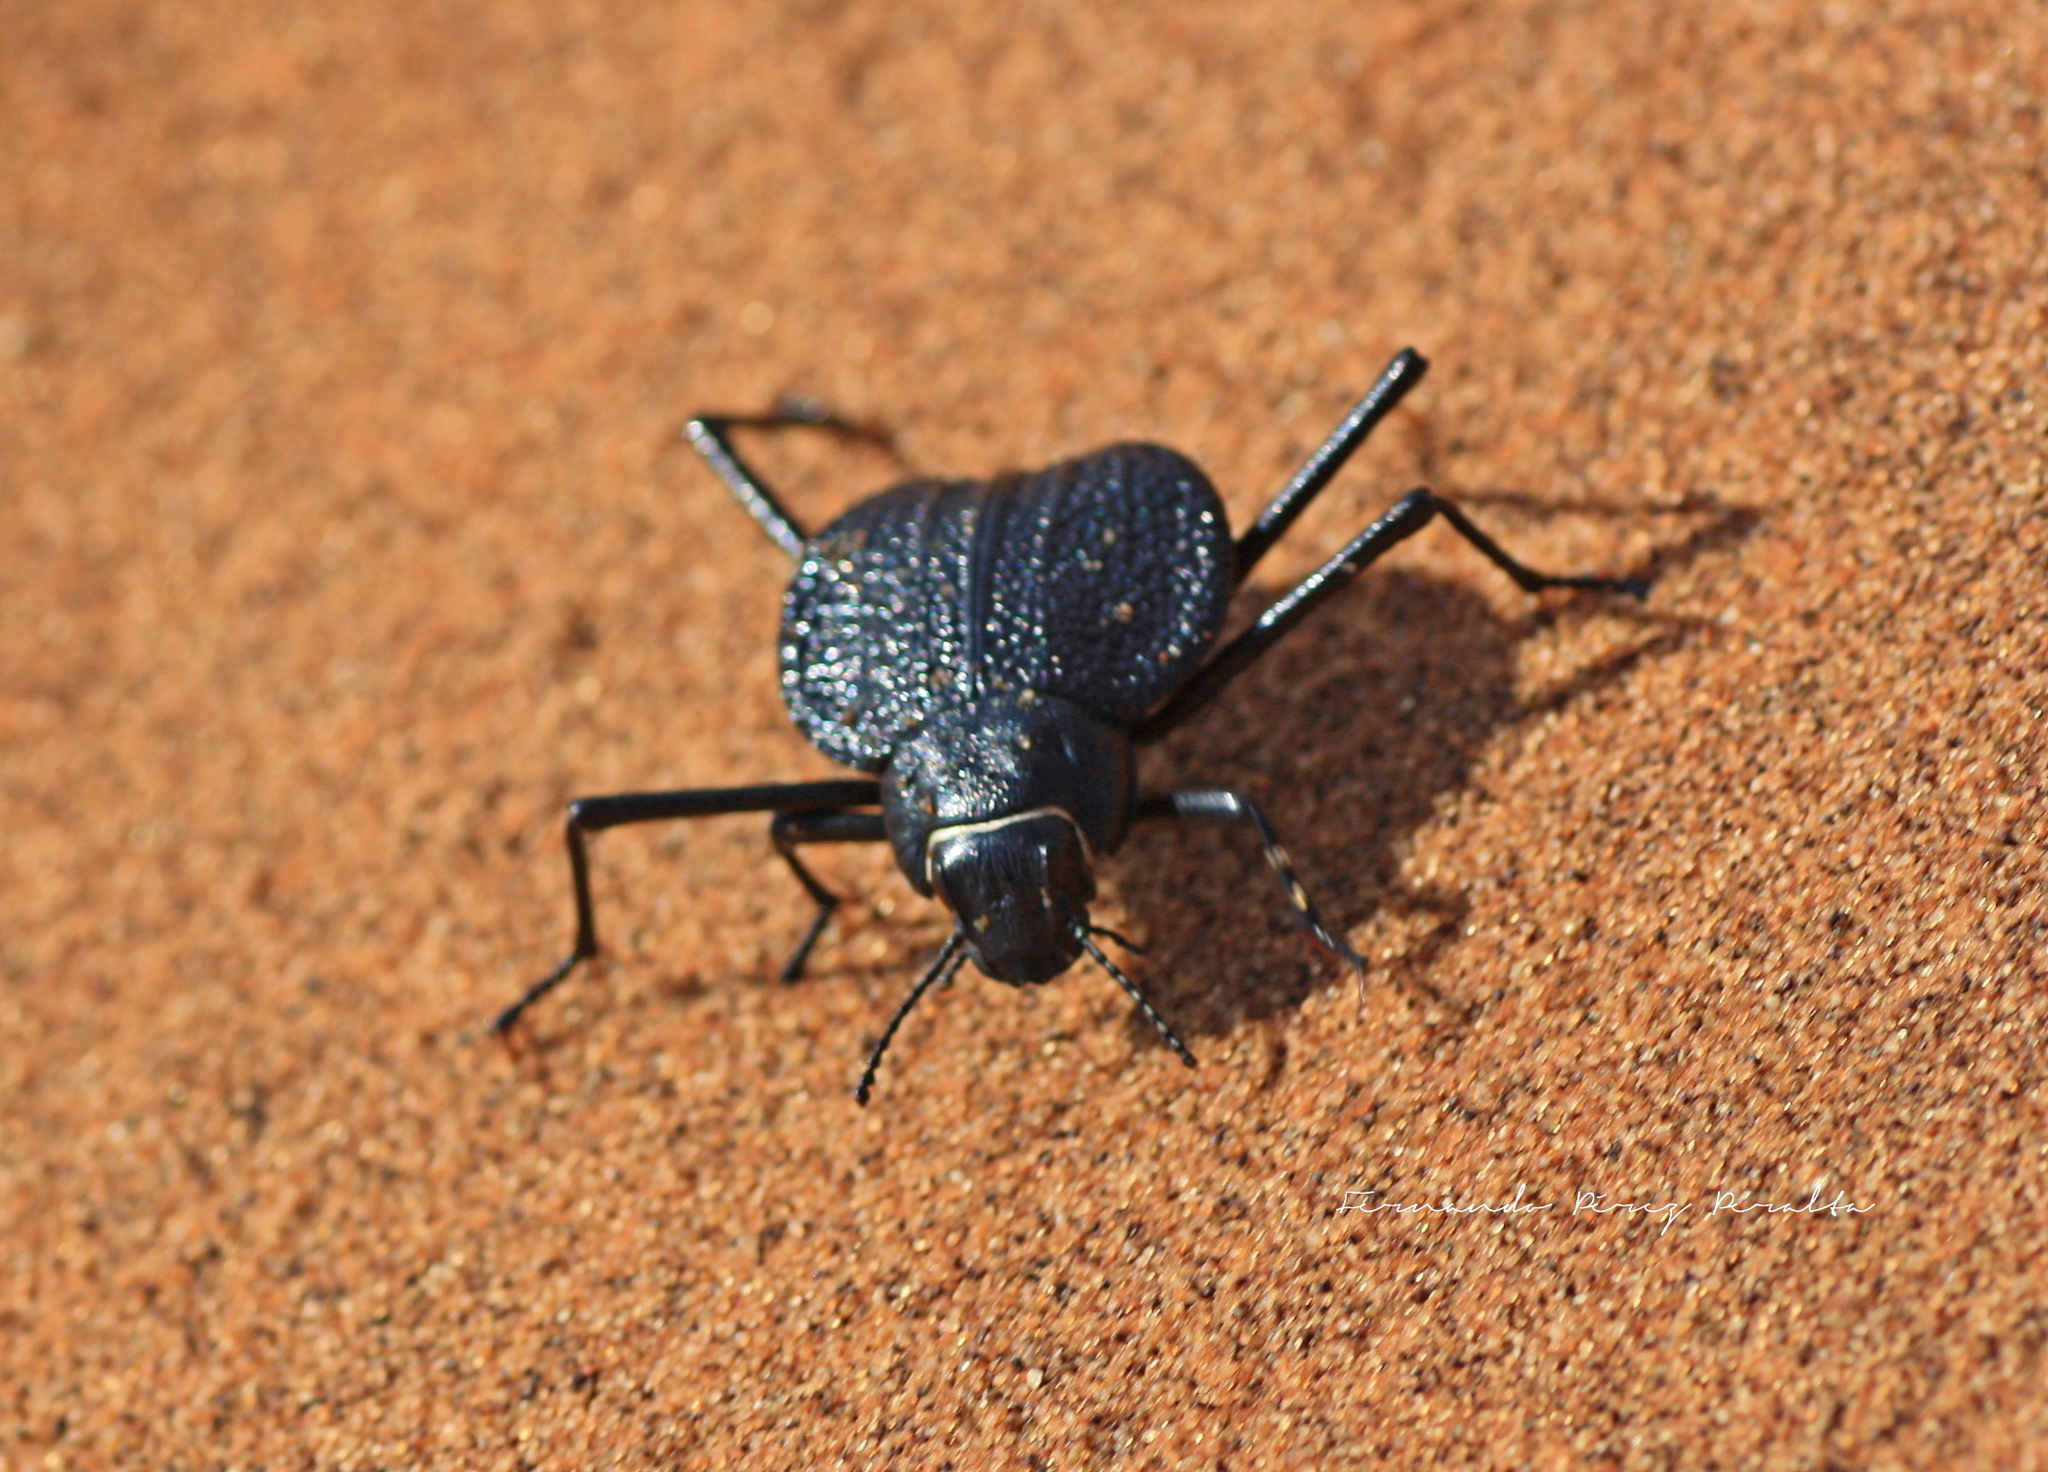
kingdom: Animalia
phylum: Arthropoda
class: Insecta
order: Coleoptera
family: Tenebrionidae
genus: Onymacris
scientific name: Onymacris
